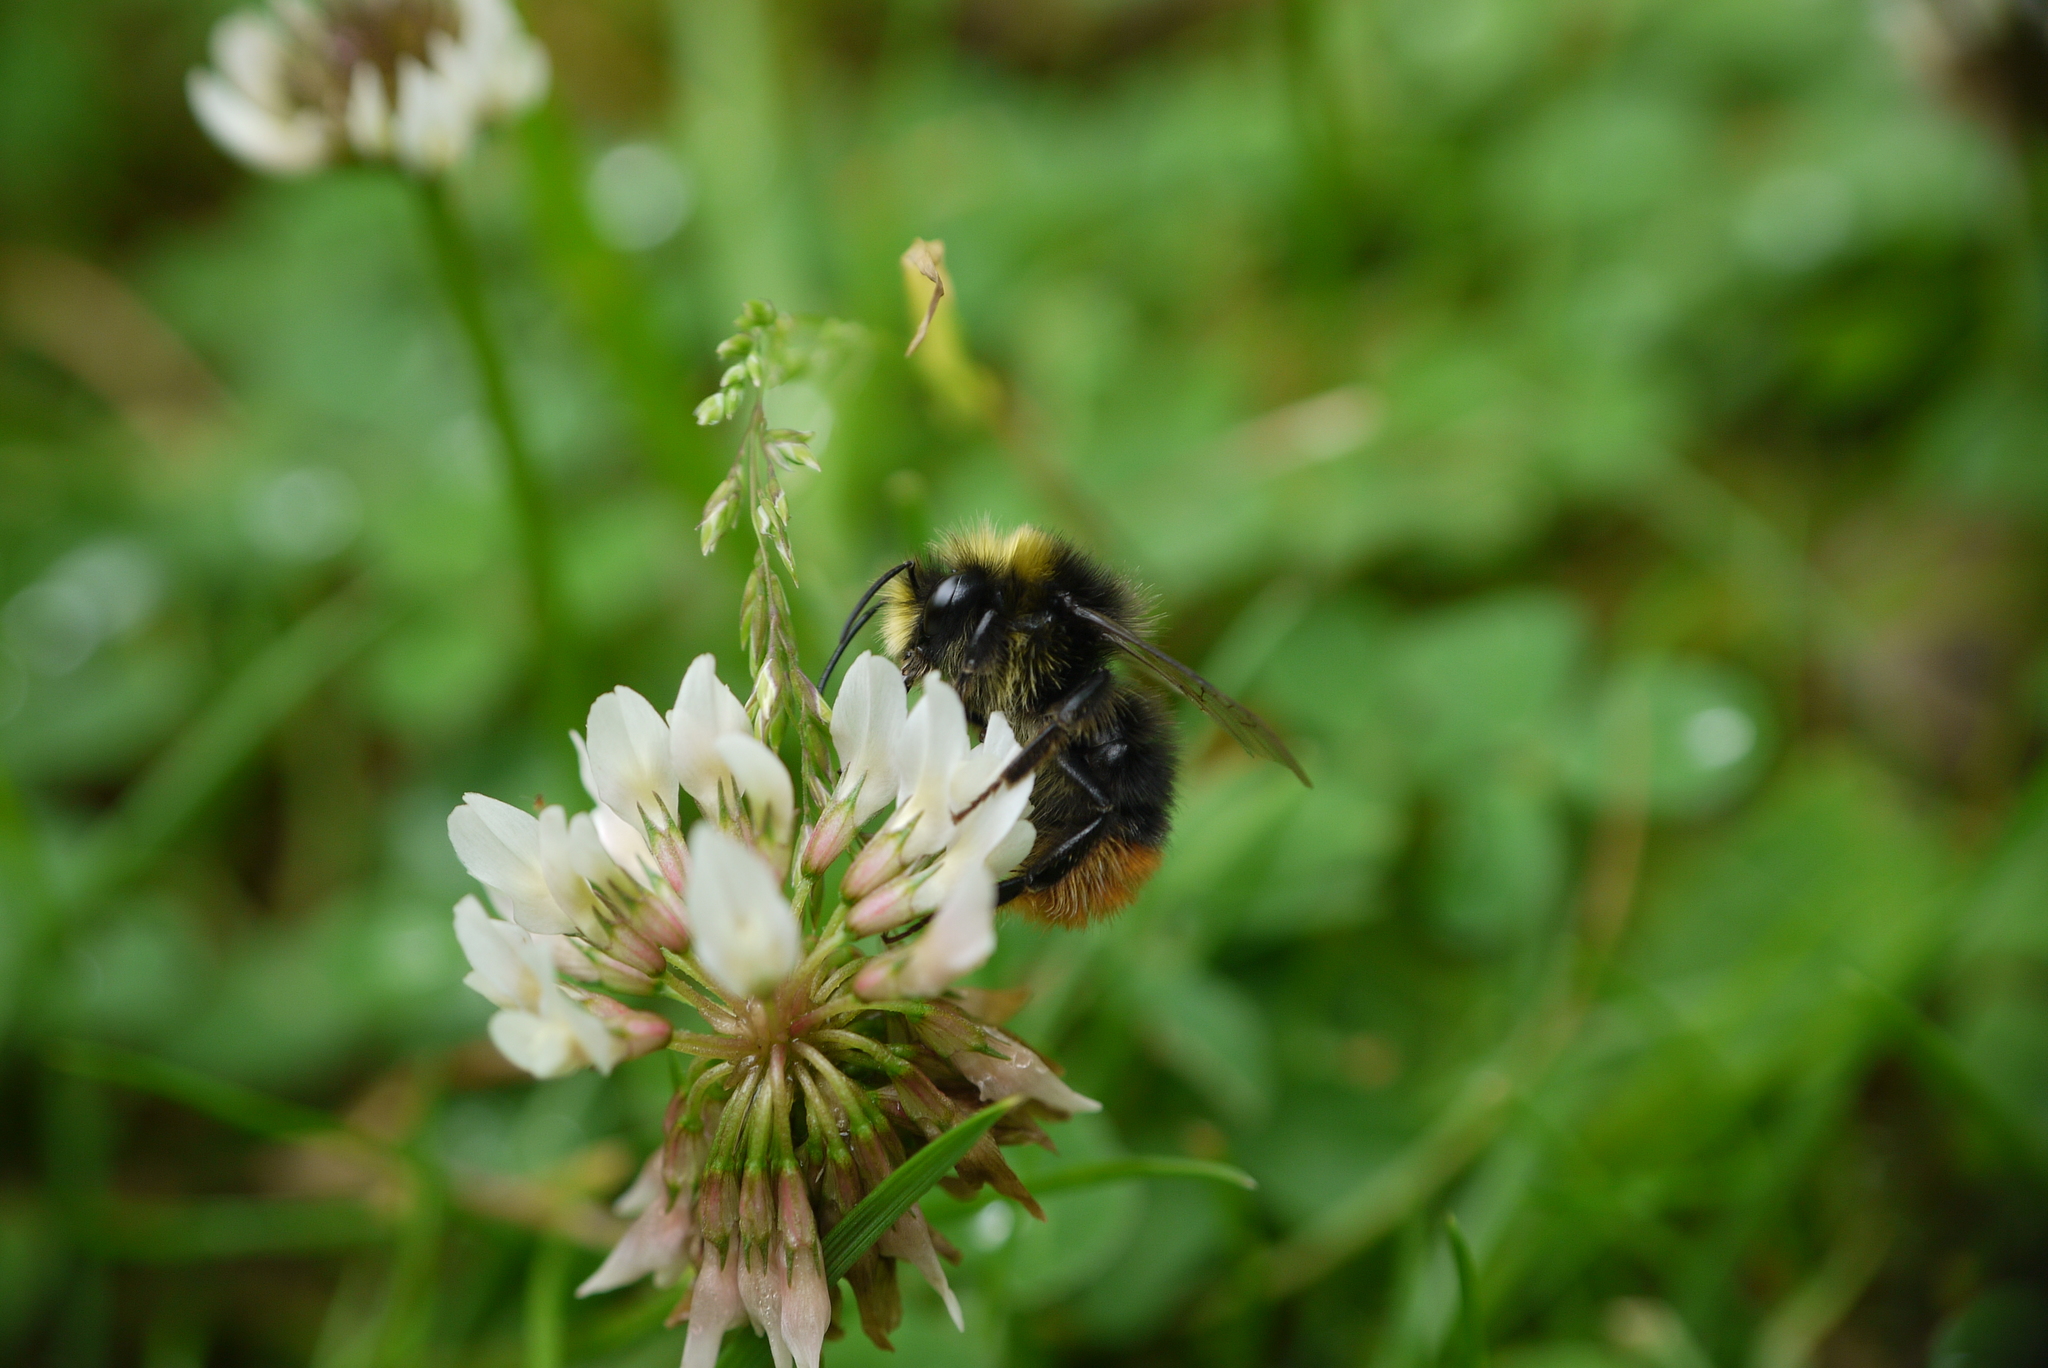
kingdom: Animalia
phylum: Arthropoda
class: Insecta
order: Hymenoptera
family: Apidae
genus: Bombus
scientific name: Bombus pratorum
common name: Early humble-bee
